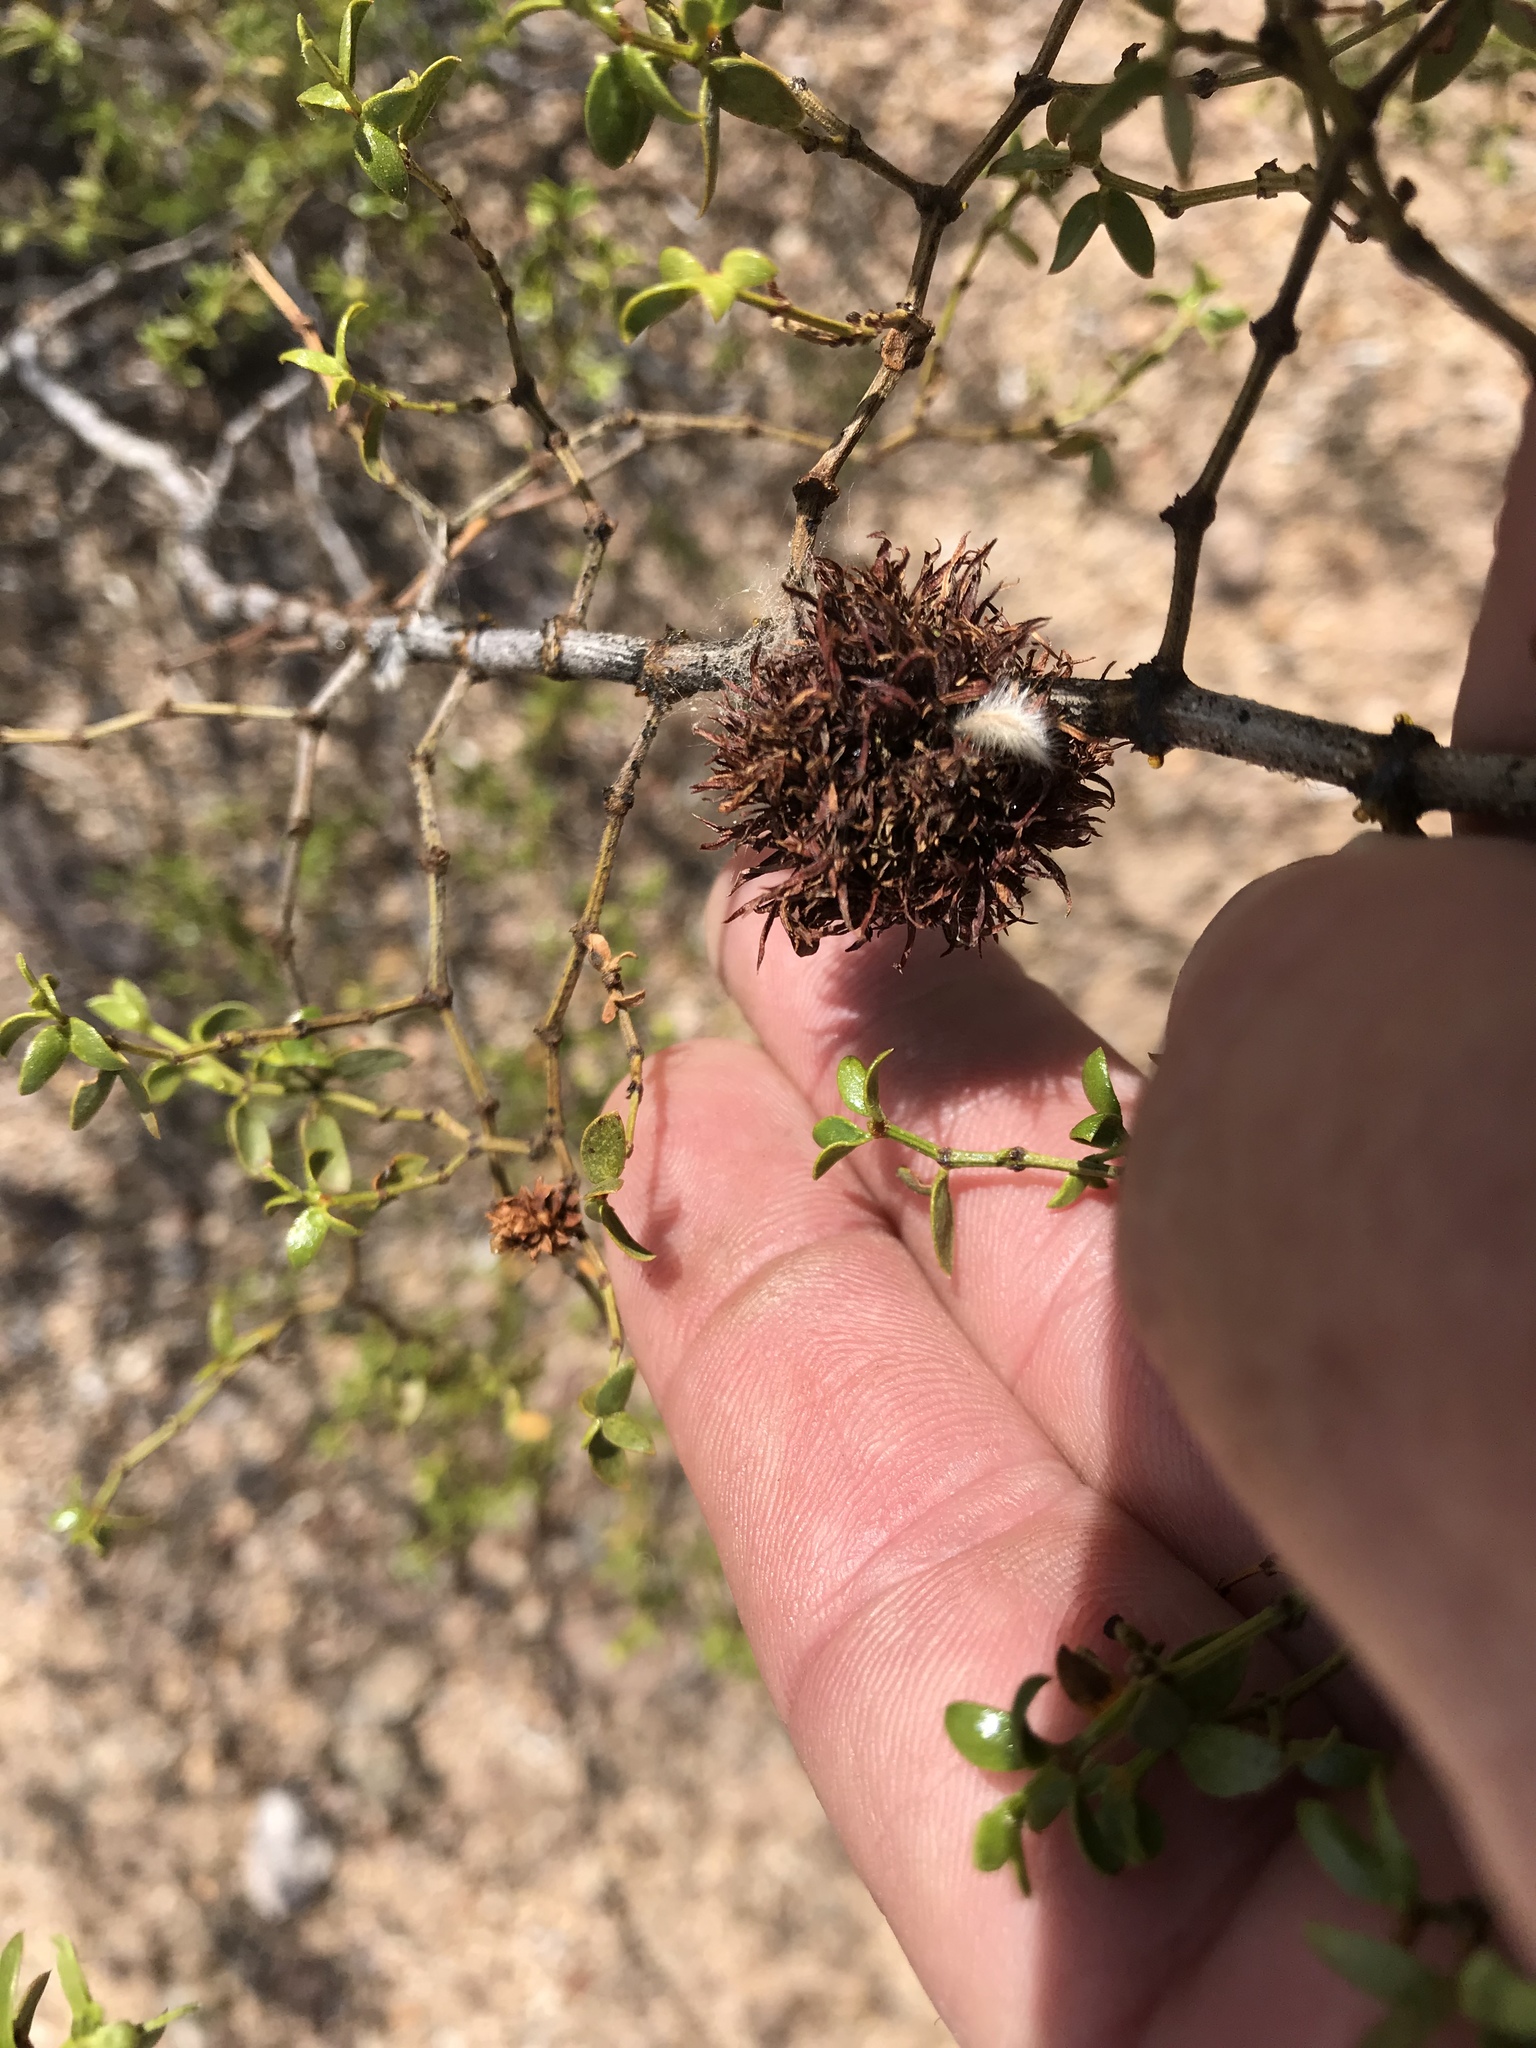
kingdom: Animalia
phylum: Arthropoda
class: Insecta
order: Diptera
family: Cecidomyiidae
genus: Asphondylia
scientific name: Asphondylia auripila
